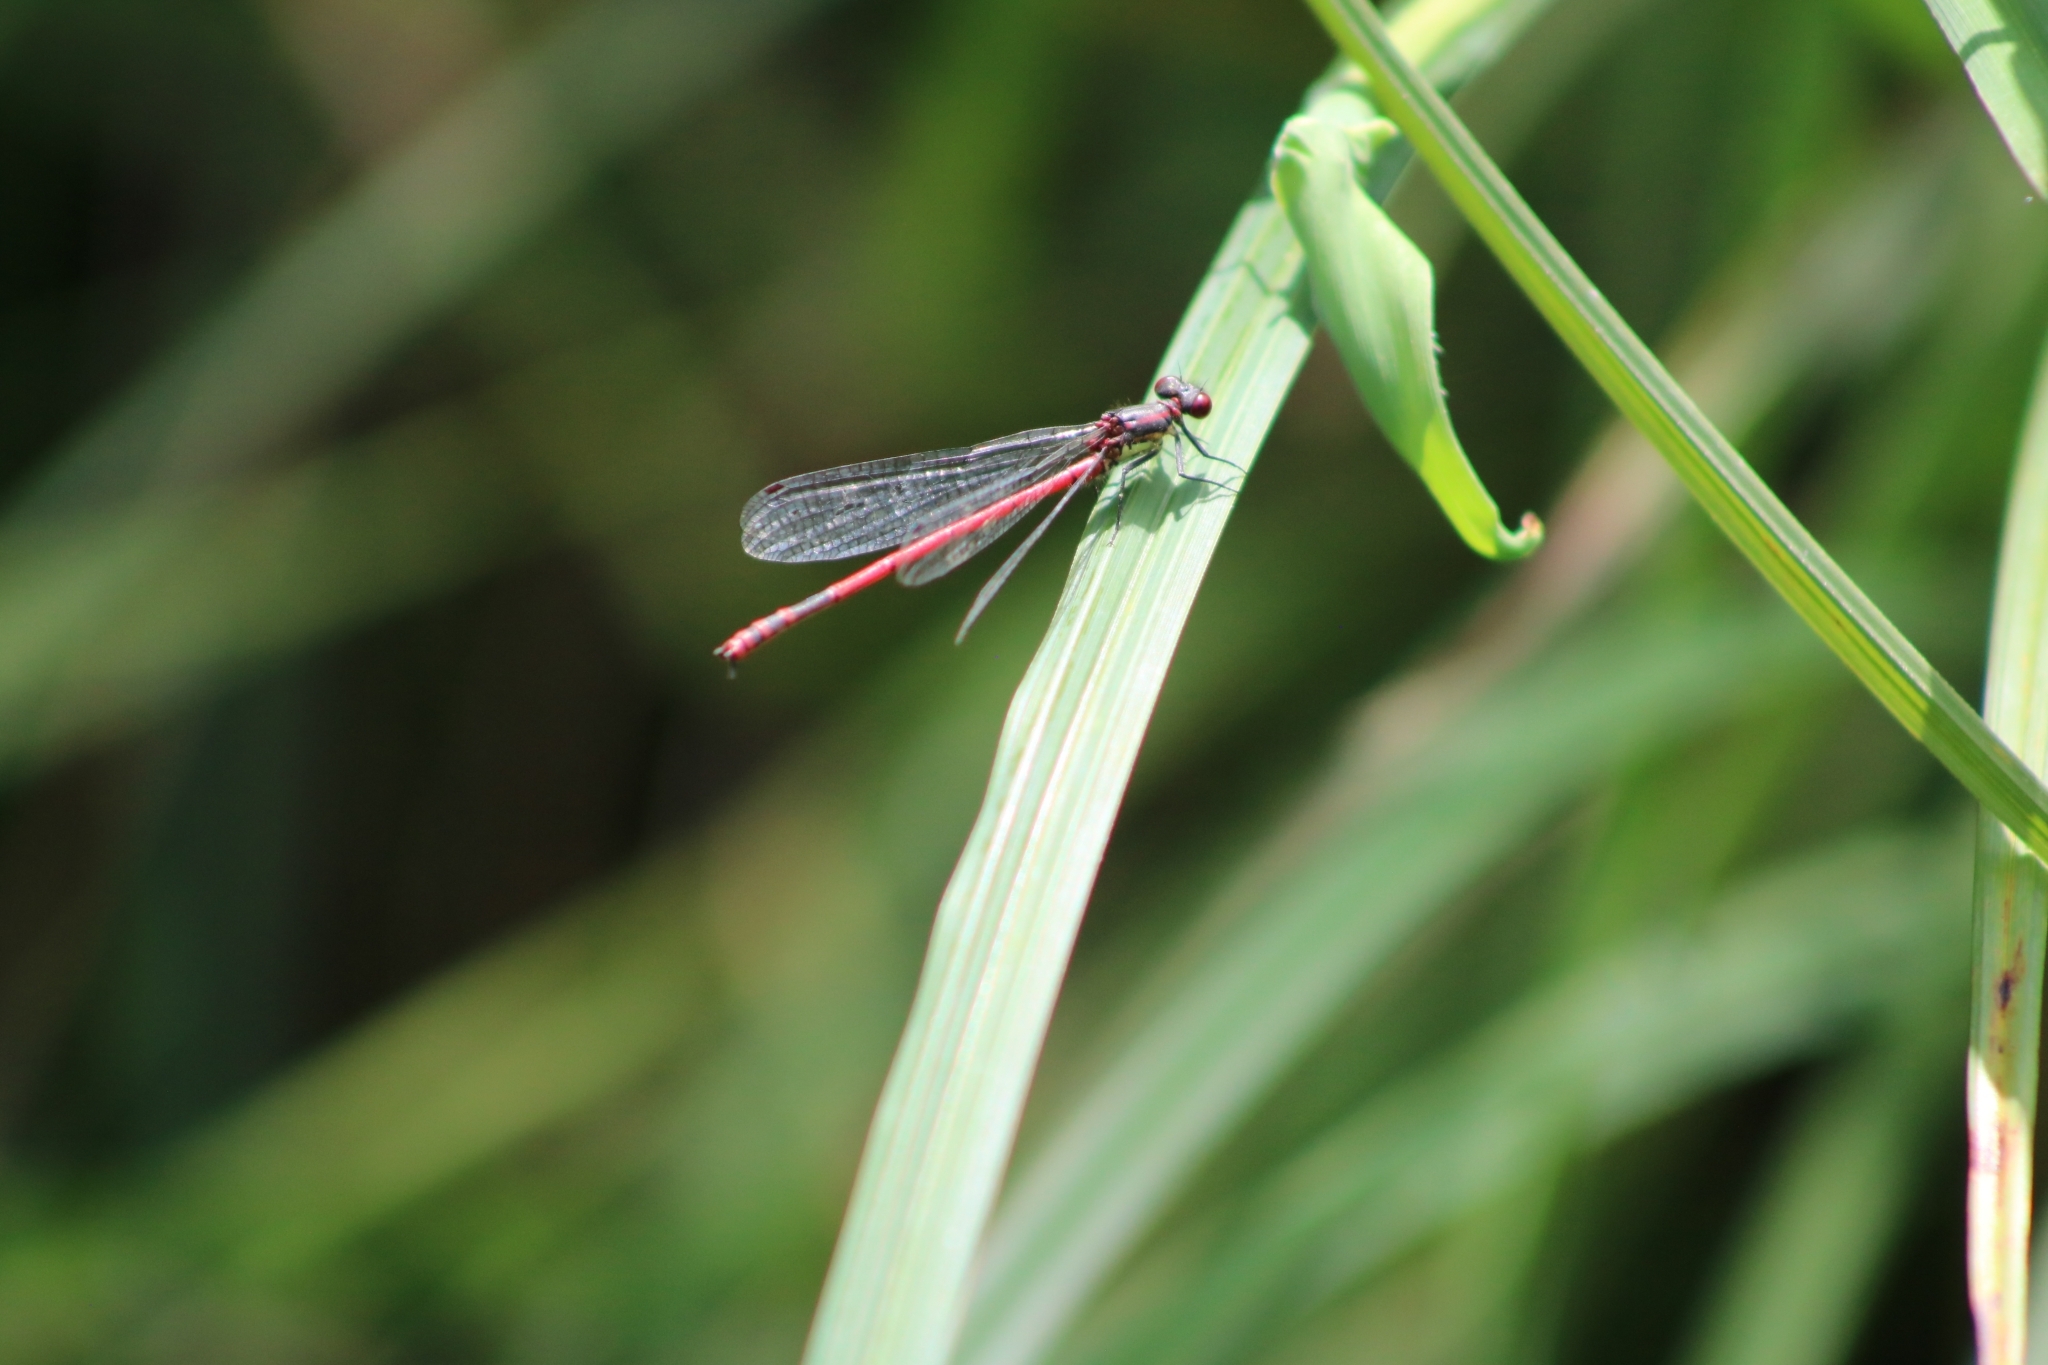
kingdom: Animalia
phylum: Arthropoda
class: Insecta
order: Odonata
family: Coenagrionidae
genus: Pyrrhosoma
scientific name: Pyrrhosoma nymphula
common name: Large red damsel
